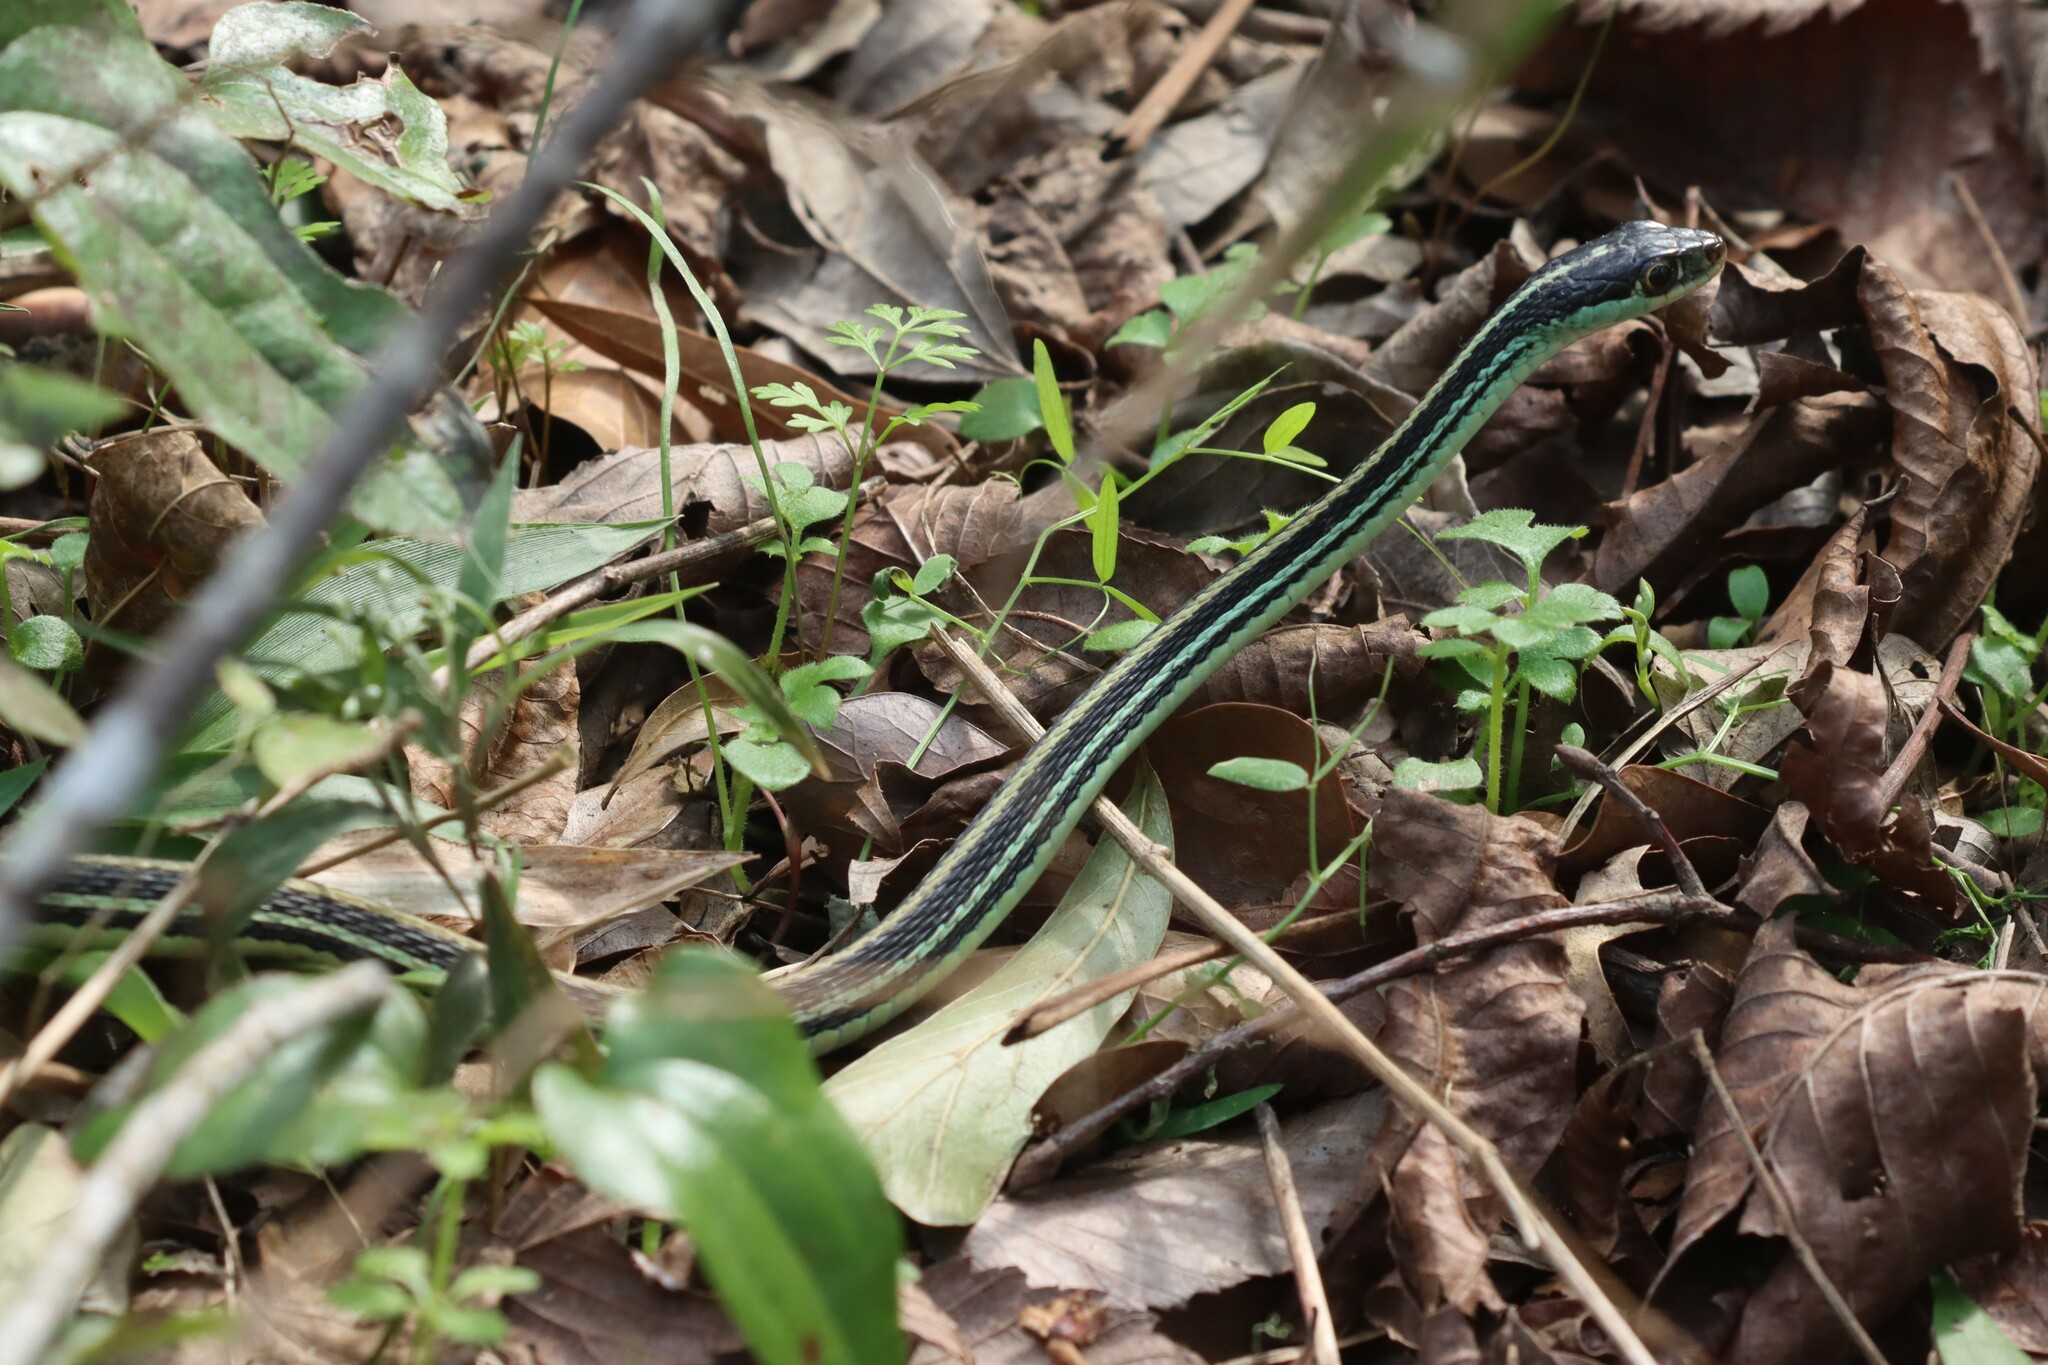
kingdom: Animalia
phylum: Chordata
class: Squamata
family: Colubridae
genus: Thamnophis
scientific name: Thamnophis proximus
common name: Western ribbon snake
